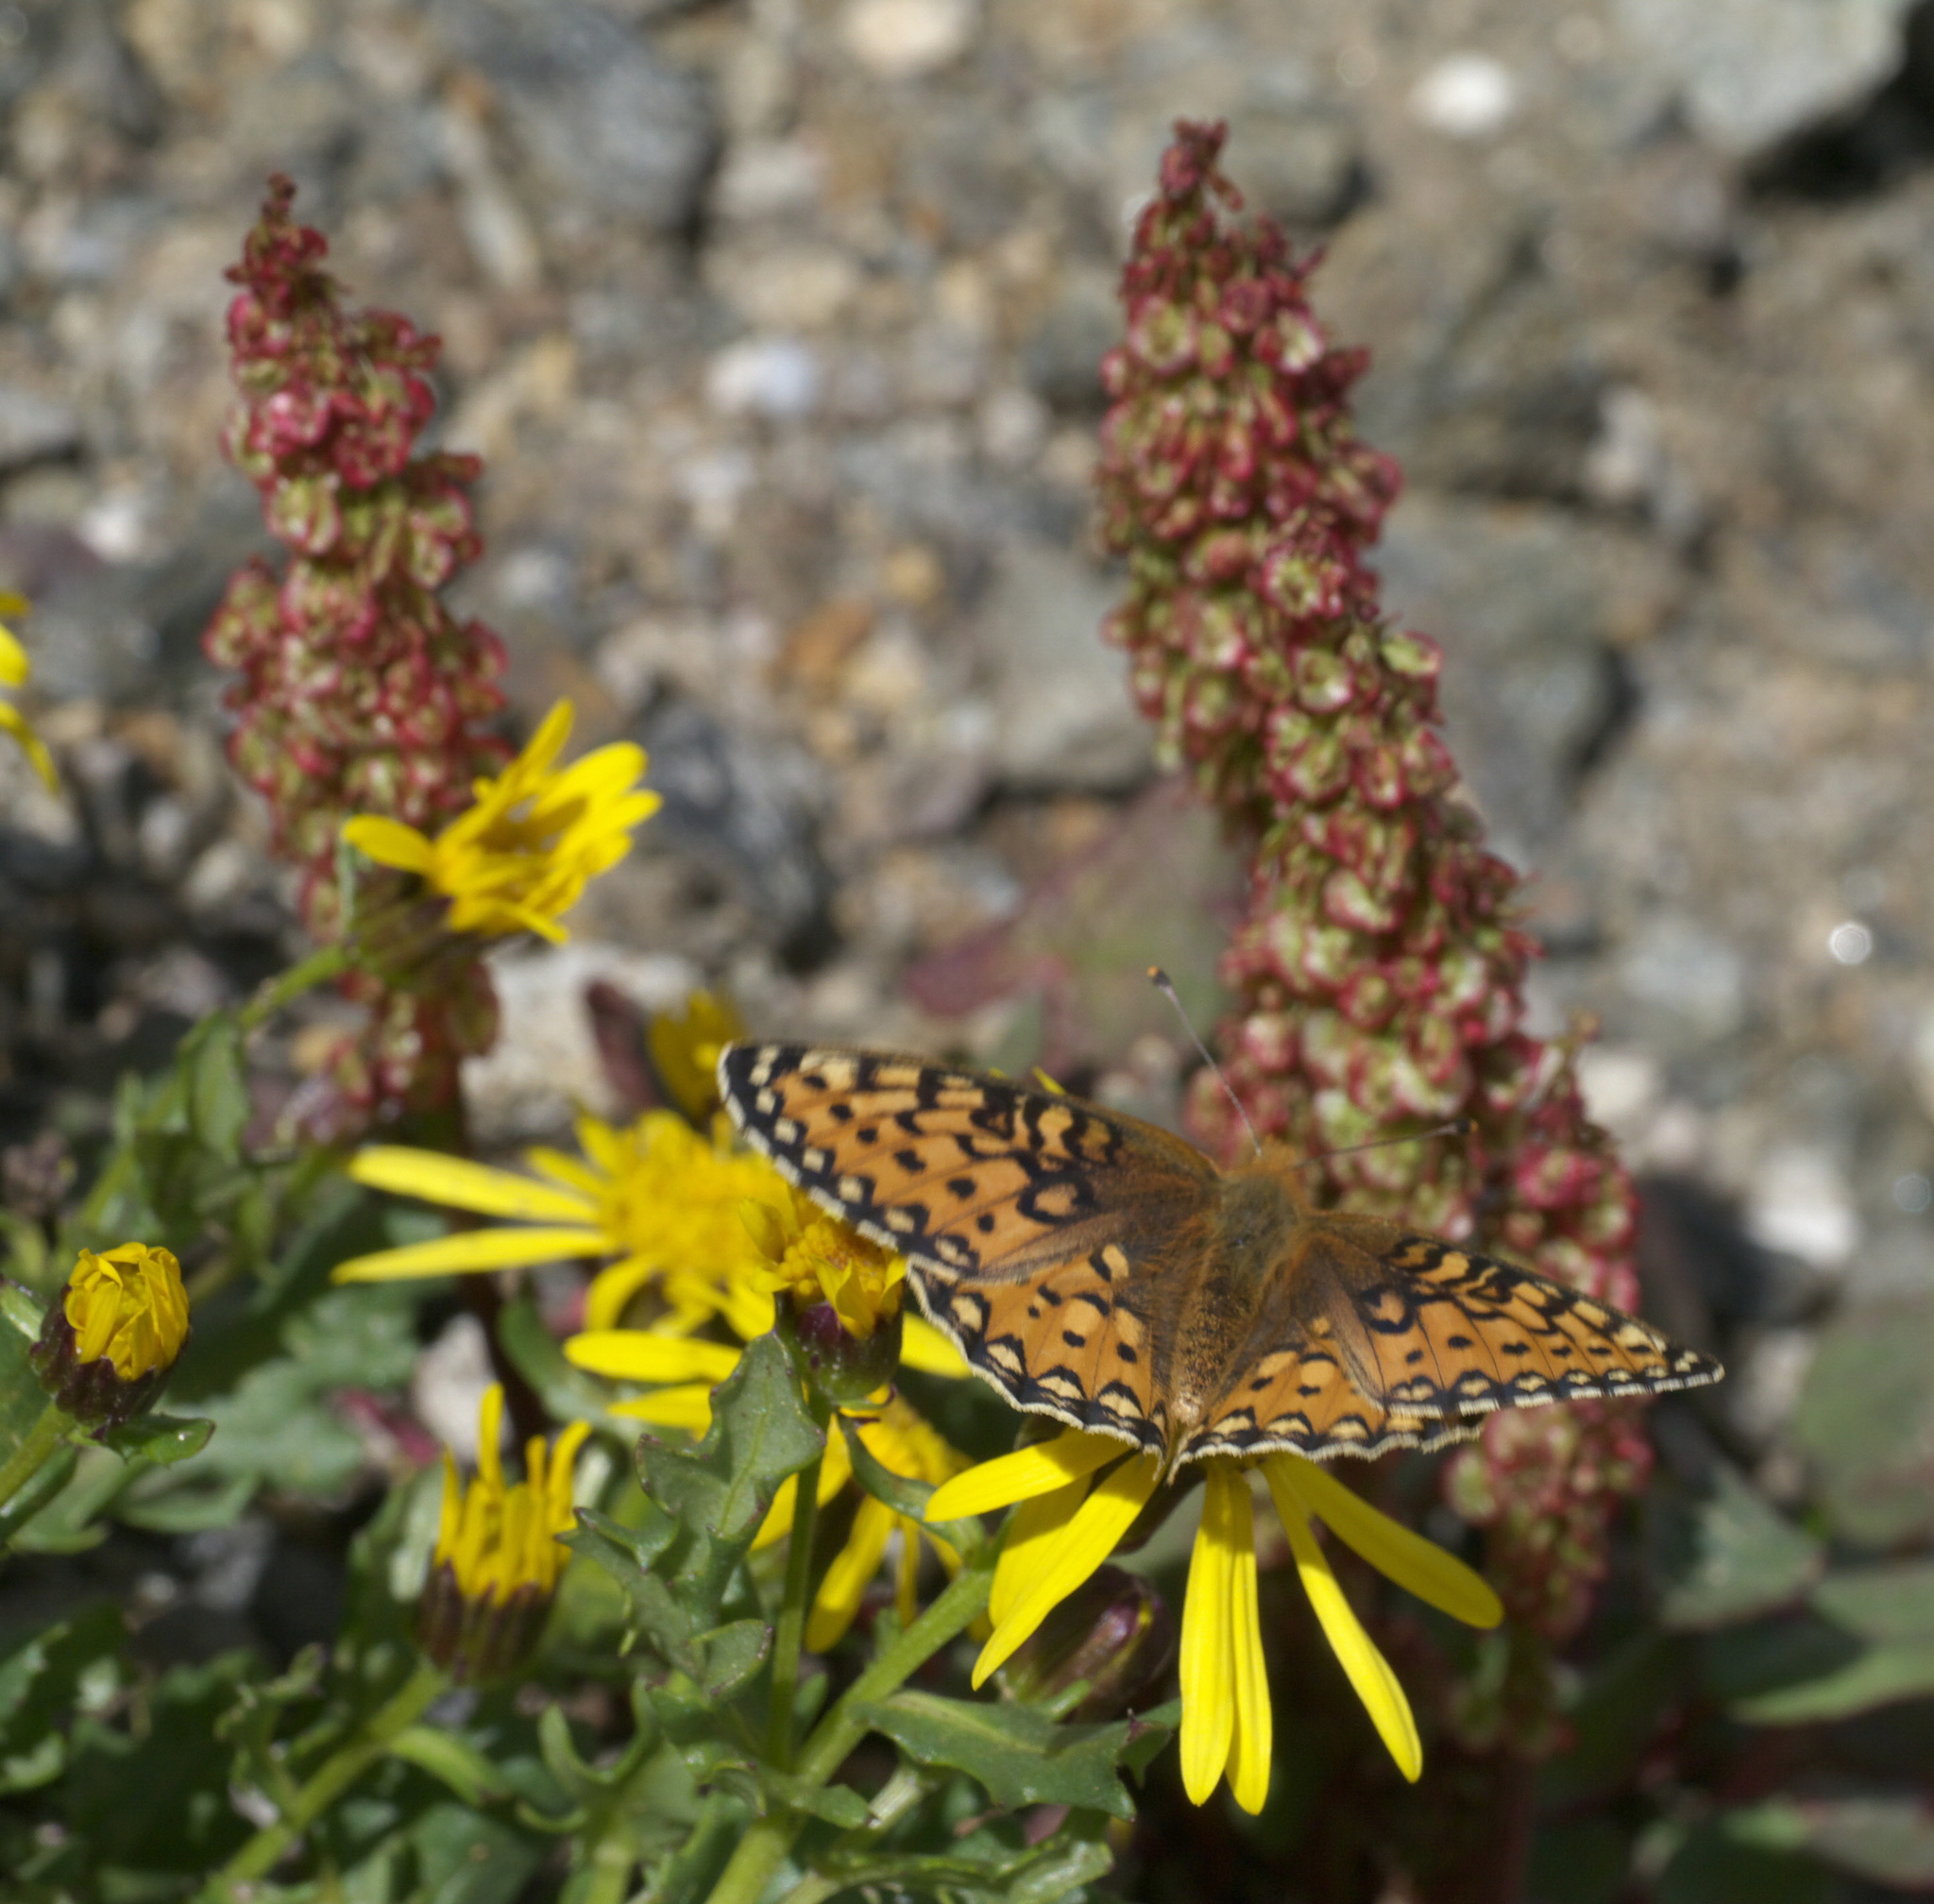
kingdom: Animalia
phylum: Arthropoda
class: Insecta
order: Lepidoptera
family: Nymphalidae
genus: Speyeria
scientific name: Speyeria mormonia
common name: Mormon fritillary
